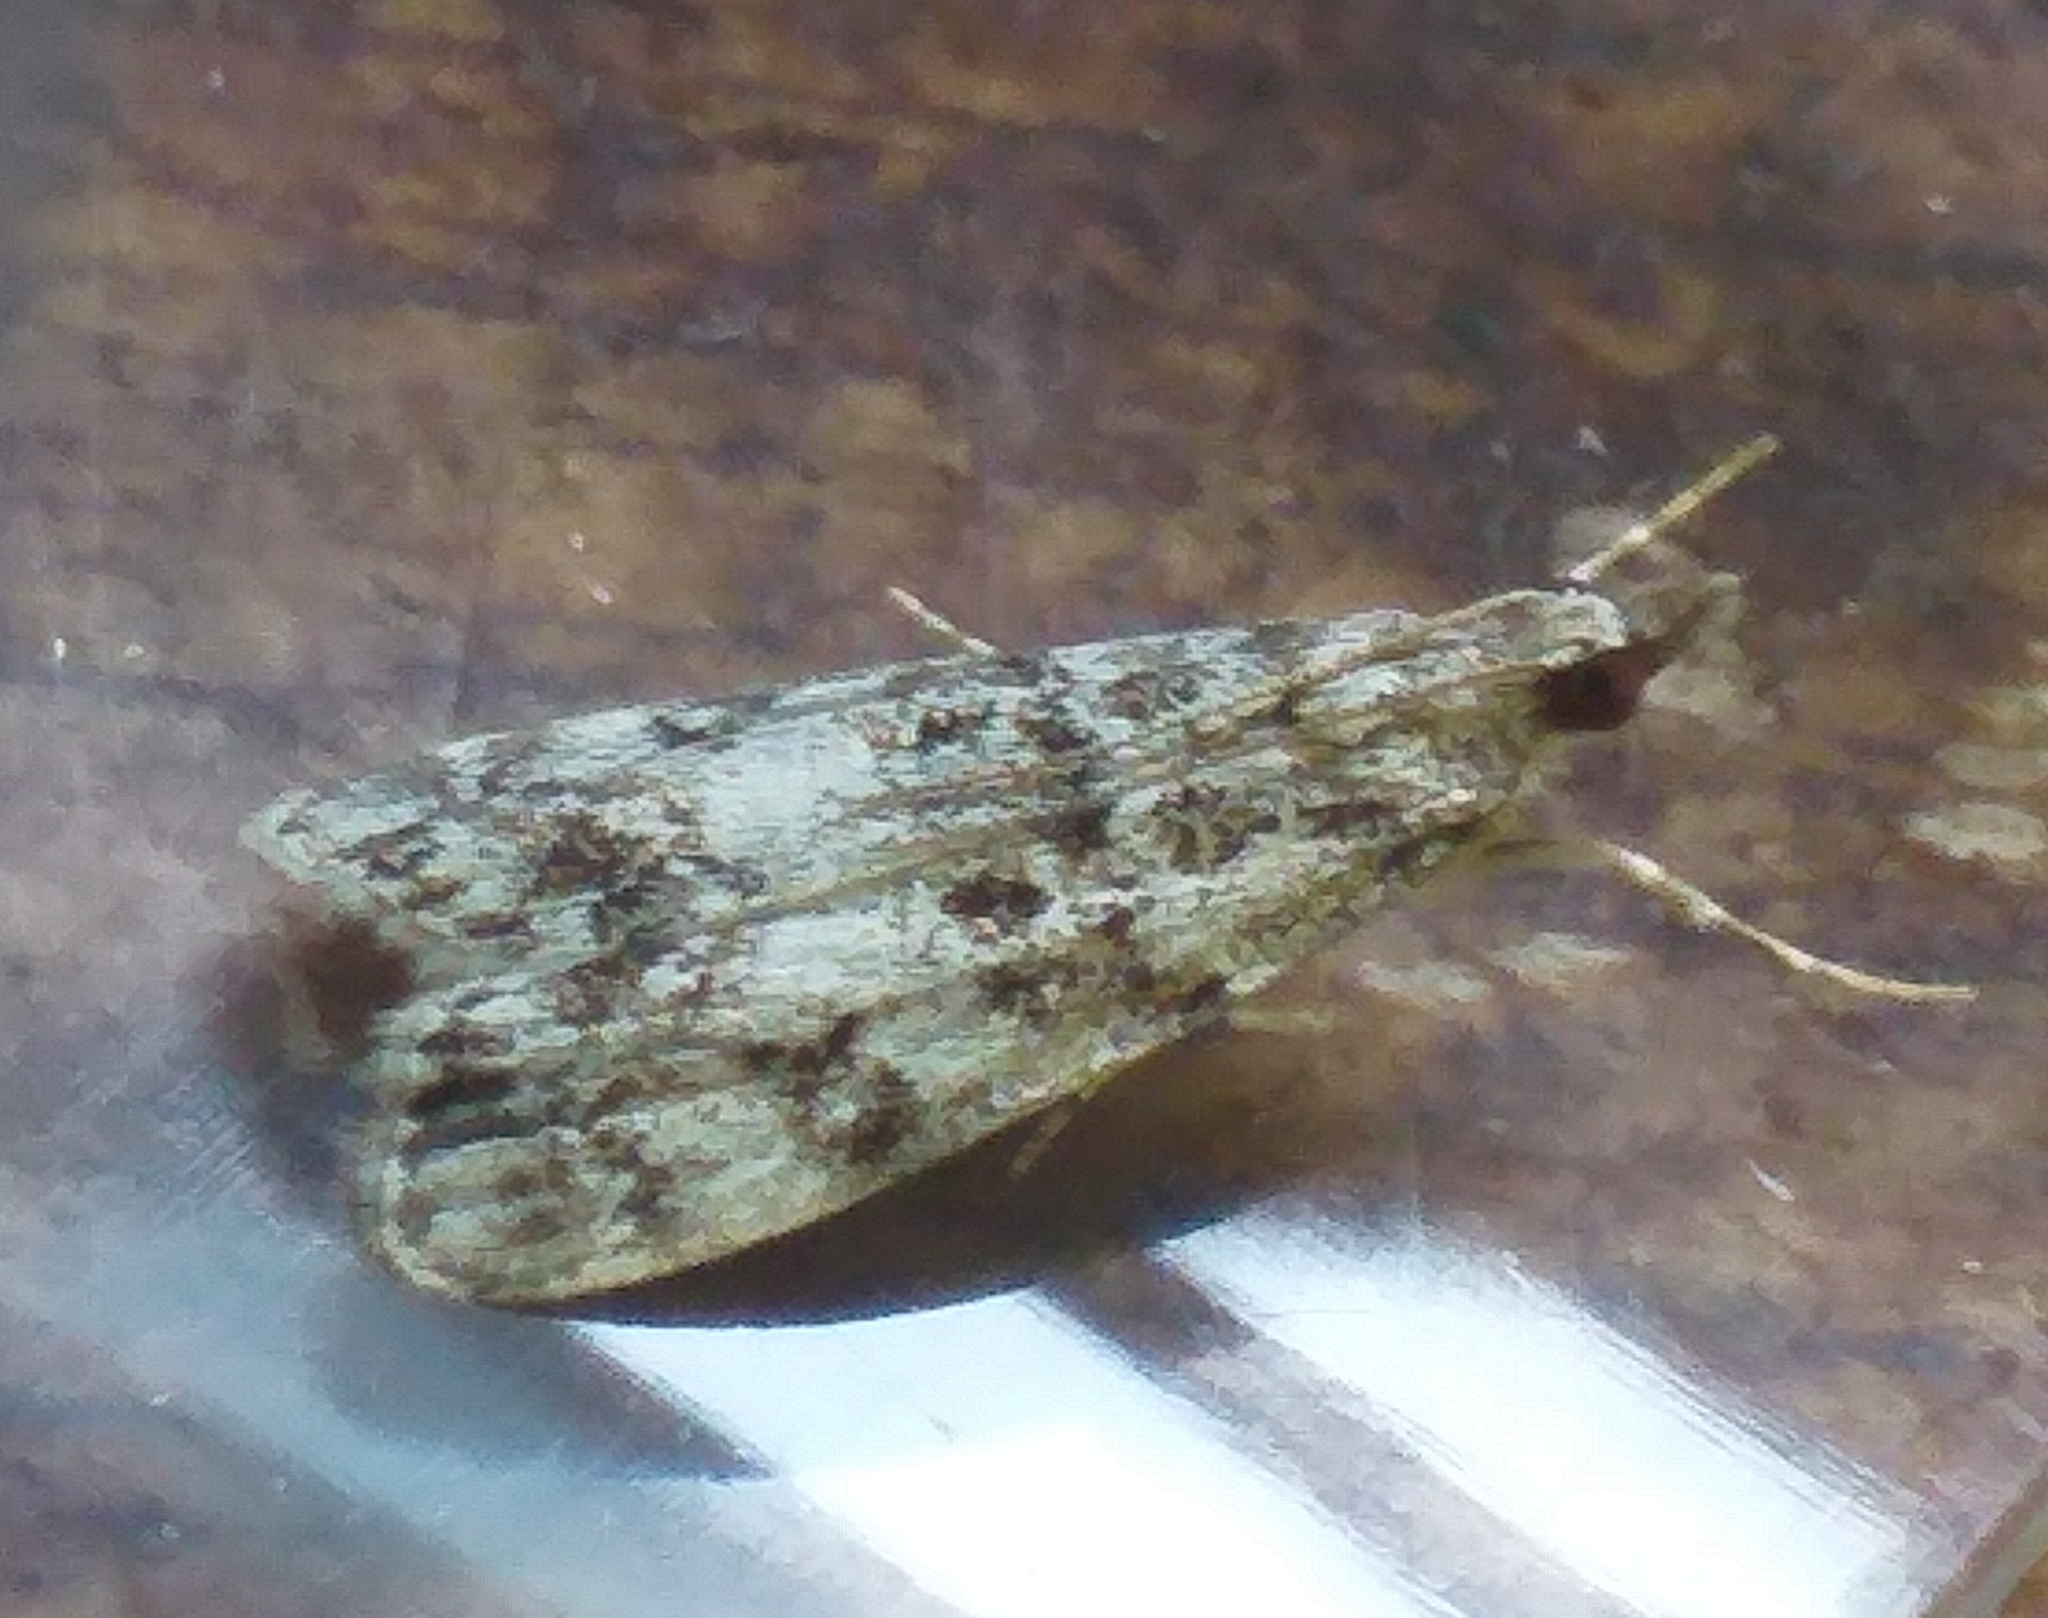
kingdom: Animalia
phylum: Arthropoda
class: Insecta
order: Lepidoptera
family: Crambidae
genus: Eudonia
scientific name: Eudonia lacustrata
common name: Little grey
